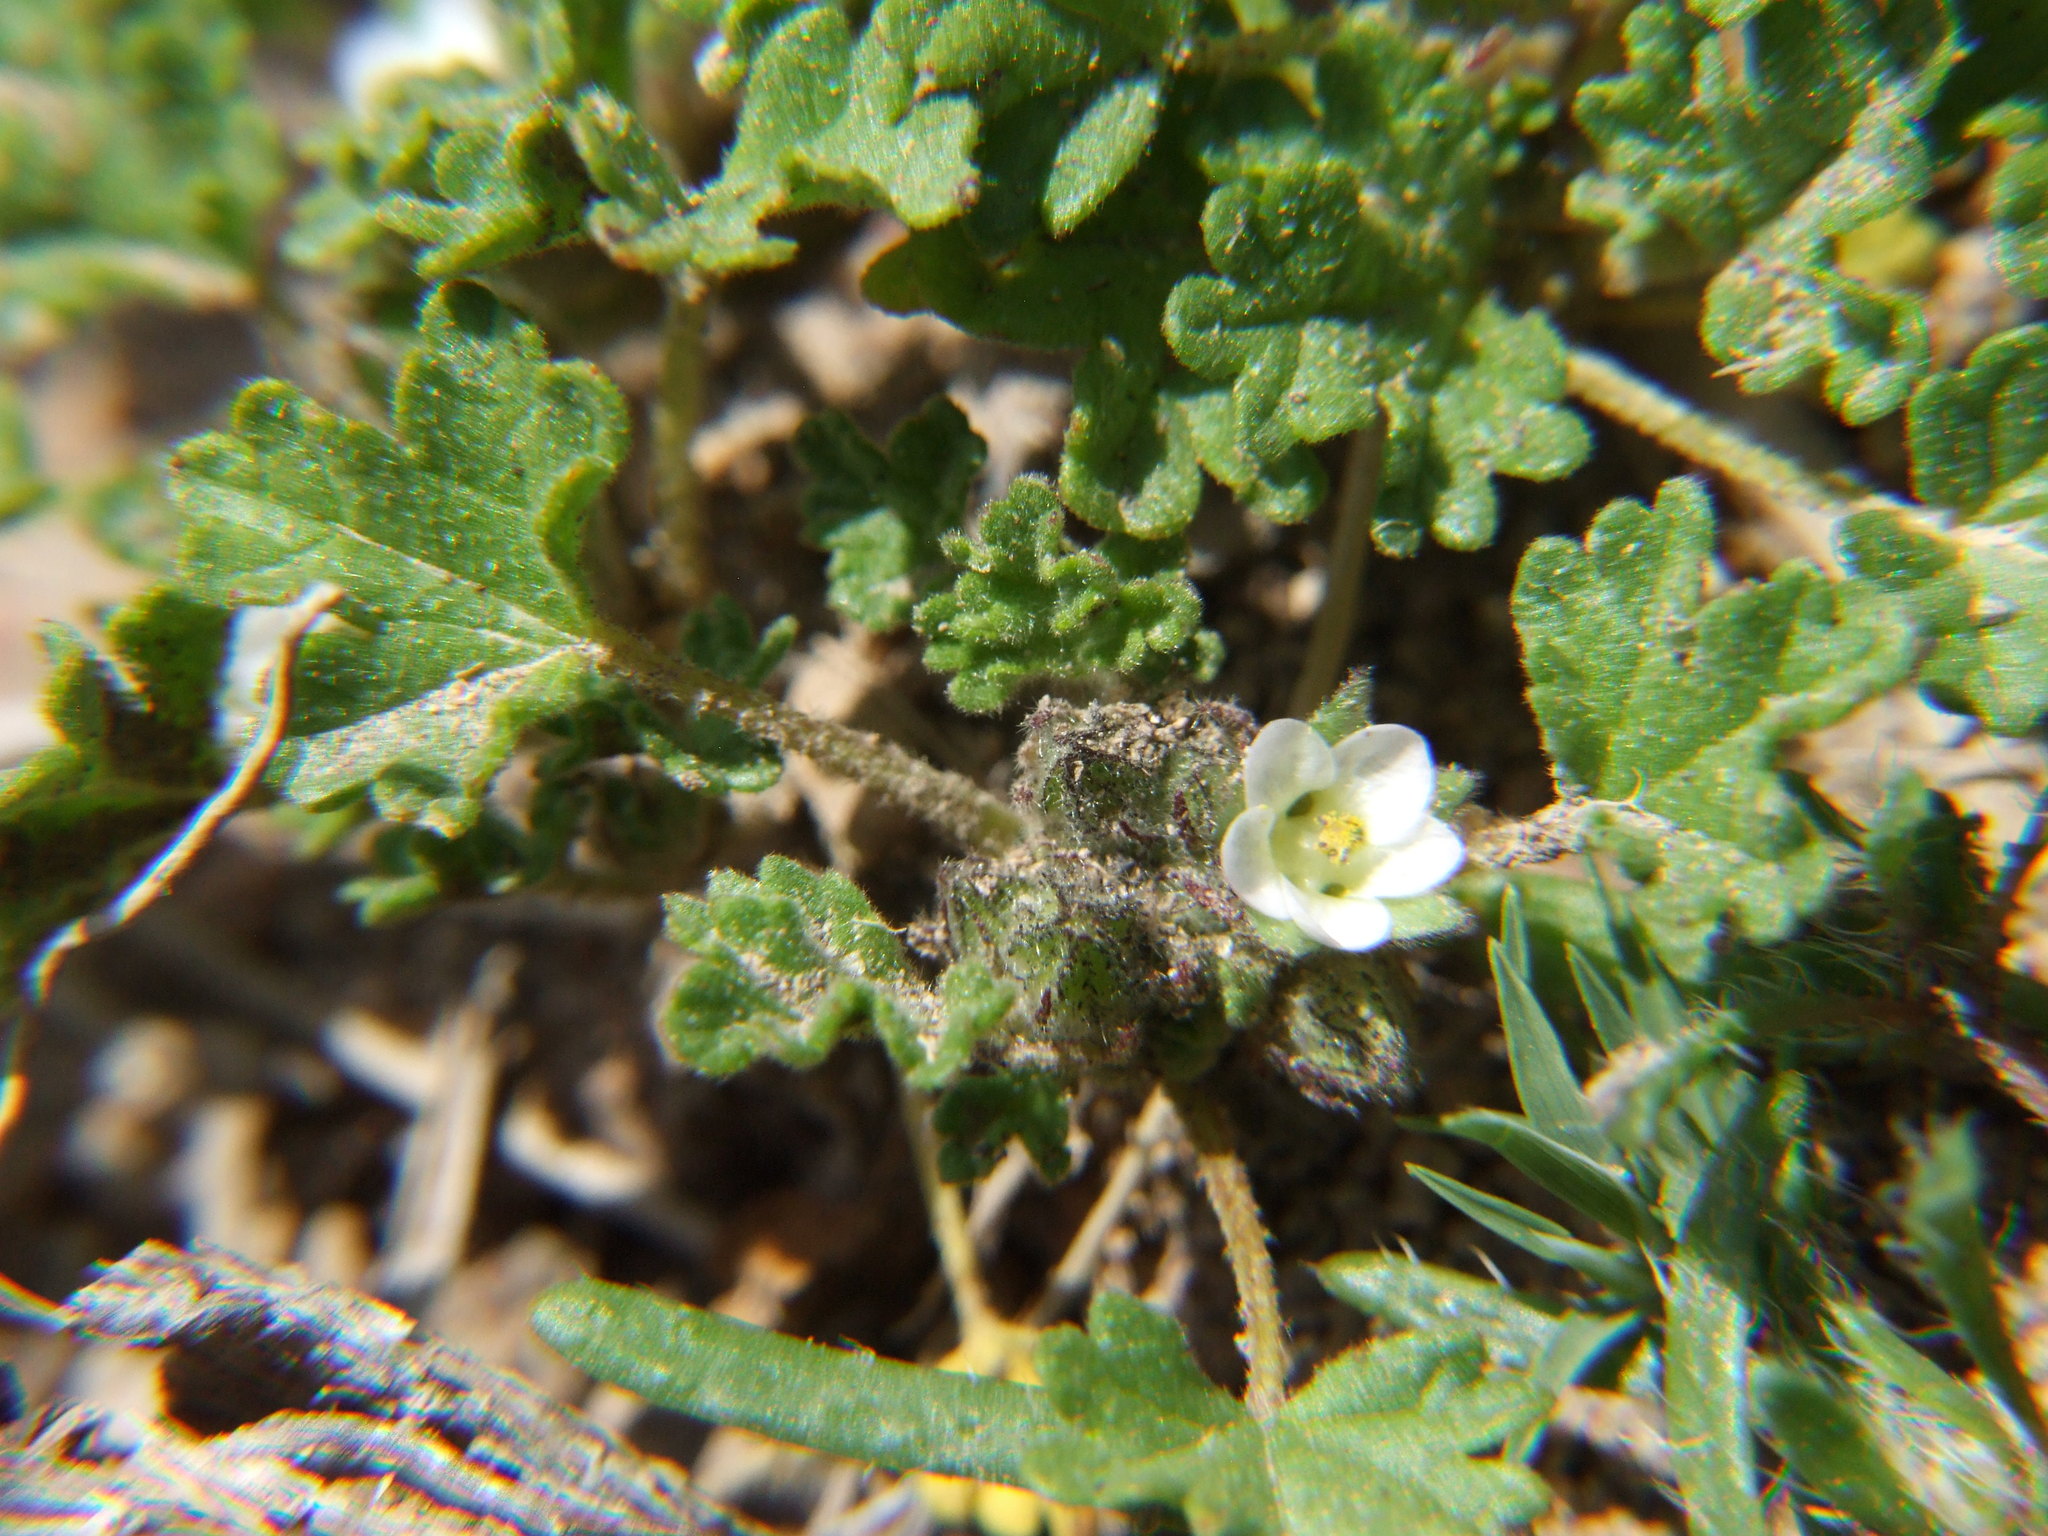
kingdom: Plantae
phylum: Tracheophyta
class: Magnoliopsida
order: Malvales
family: Malvaceae
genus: Tarasa
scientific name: Tarasa nototrichoides
